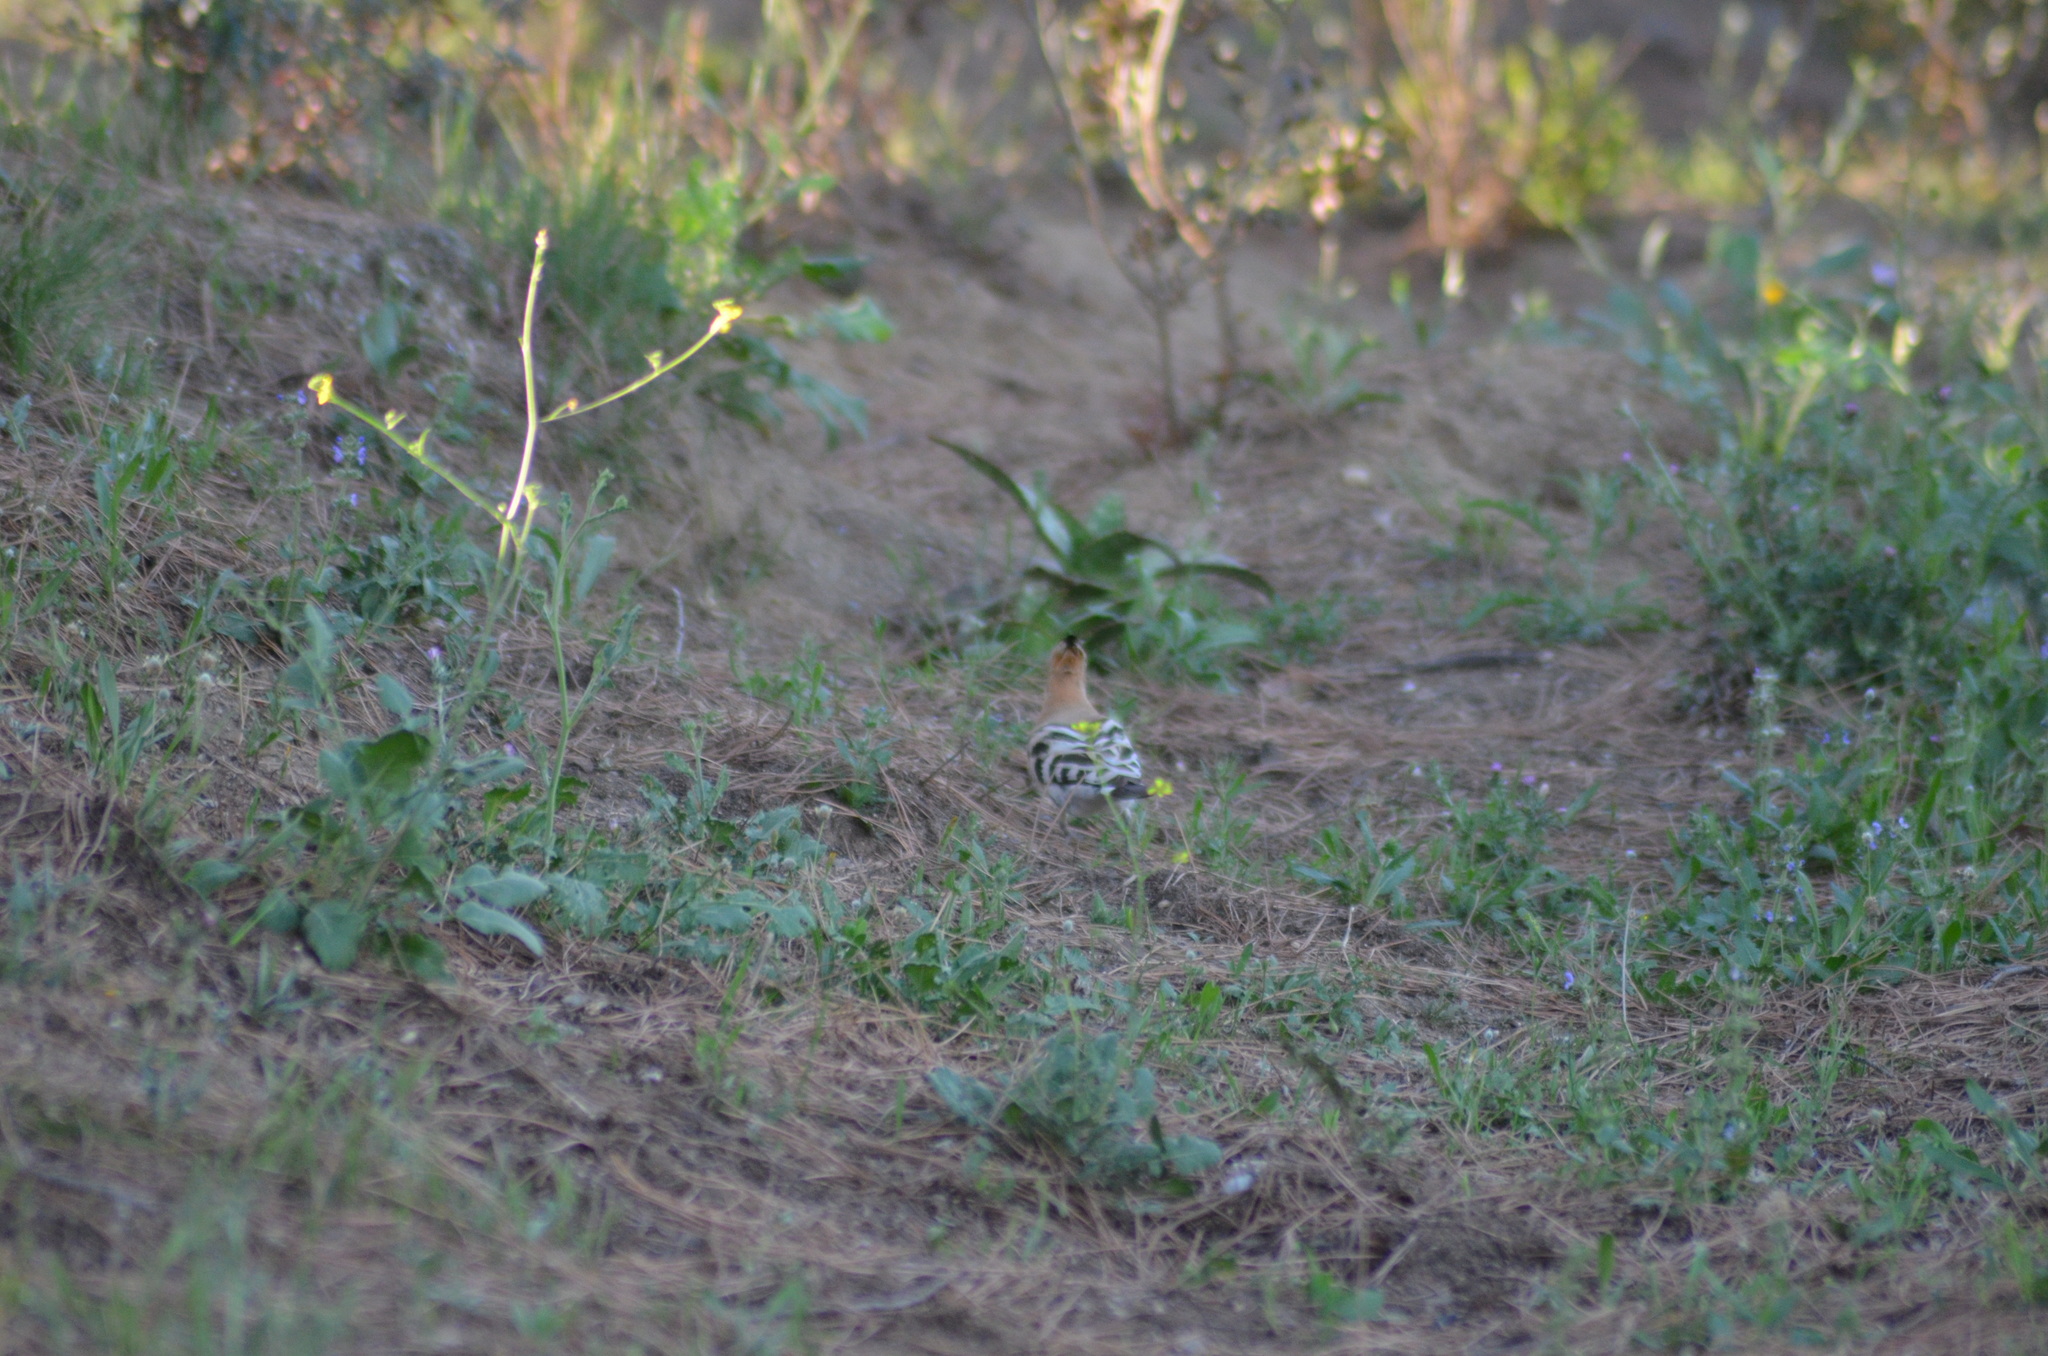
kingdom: Animalia
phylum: Chordata
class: Aves
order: Bucerotiformes
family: Upupidae
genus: Upupa
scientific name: Upupa epops
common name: Eurasian hoopoe
